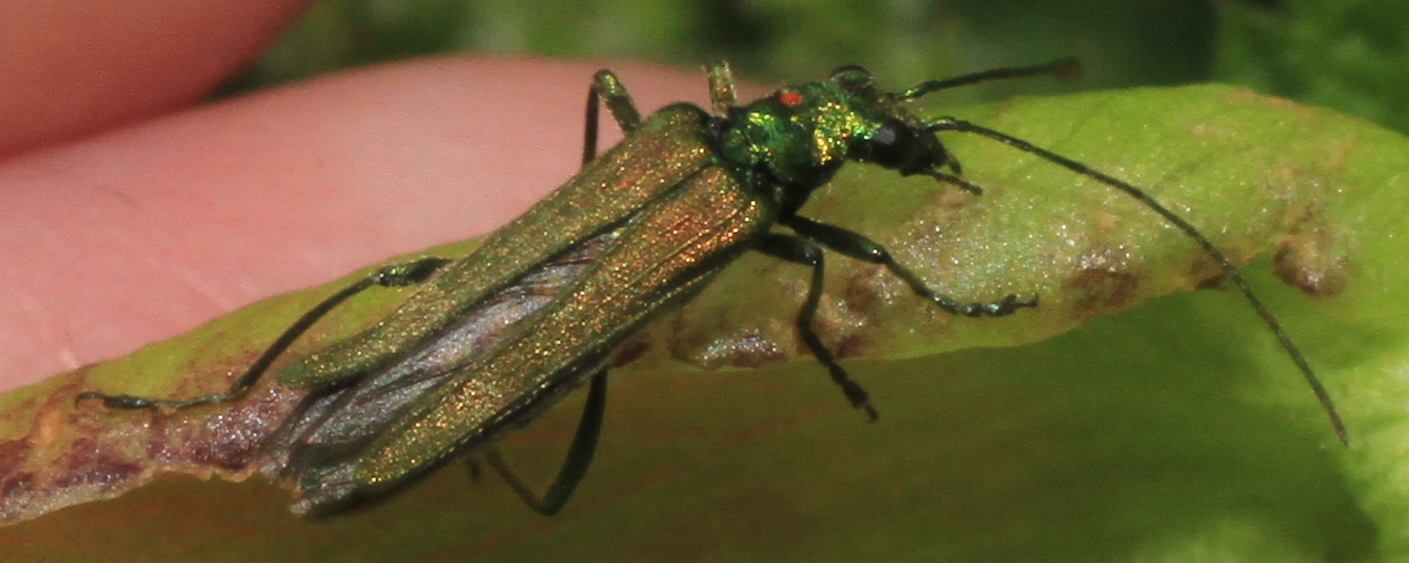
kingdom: Animalia
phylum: Arthropoda
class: Insecta
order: Coleoptera
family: Oedemeridae
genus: Oedemera
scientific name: Oedemera nobilis
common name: Swollen-thighed beetle
